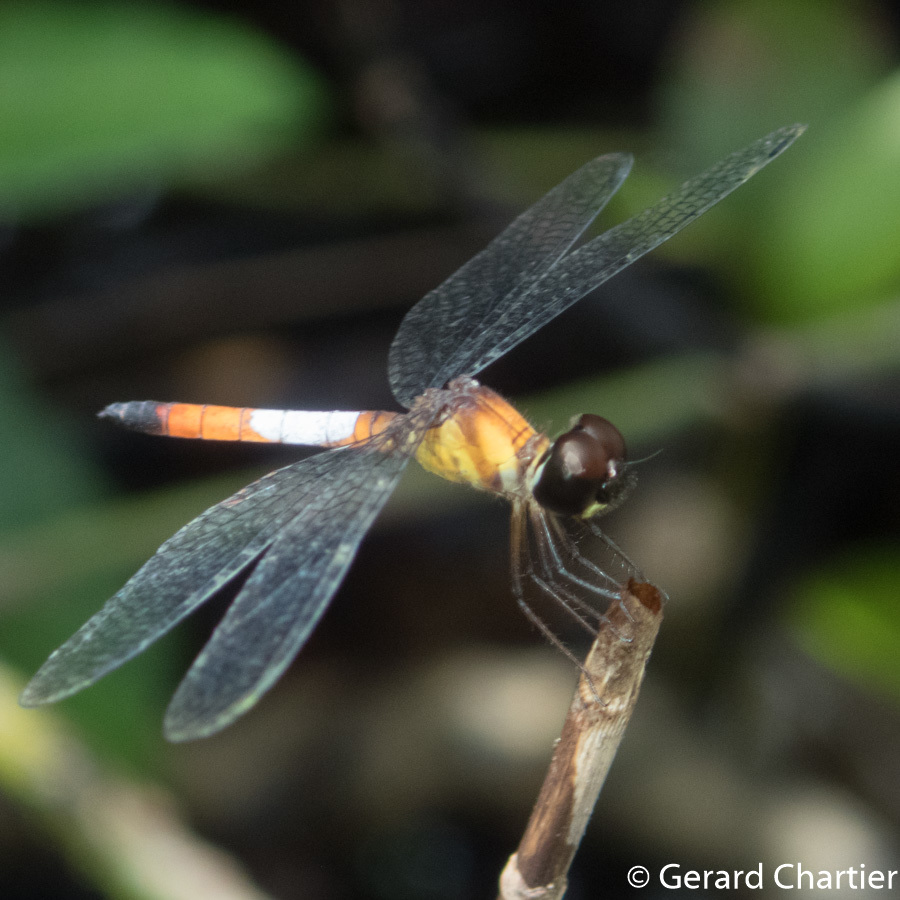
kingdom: Animalia
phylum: Arthropoda
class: Insecta
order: Odonata
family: Libellulidae
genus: Brachygonia
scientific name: Brachygonia oculata
